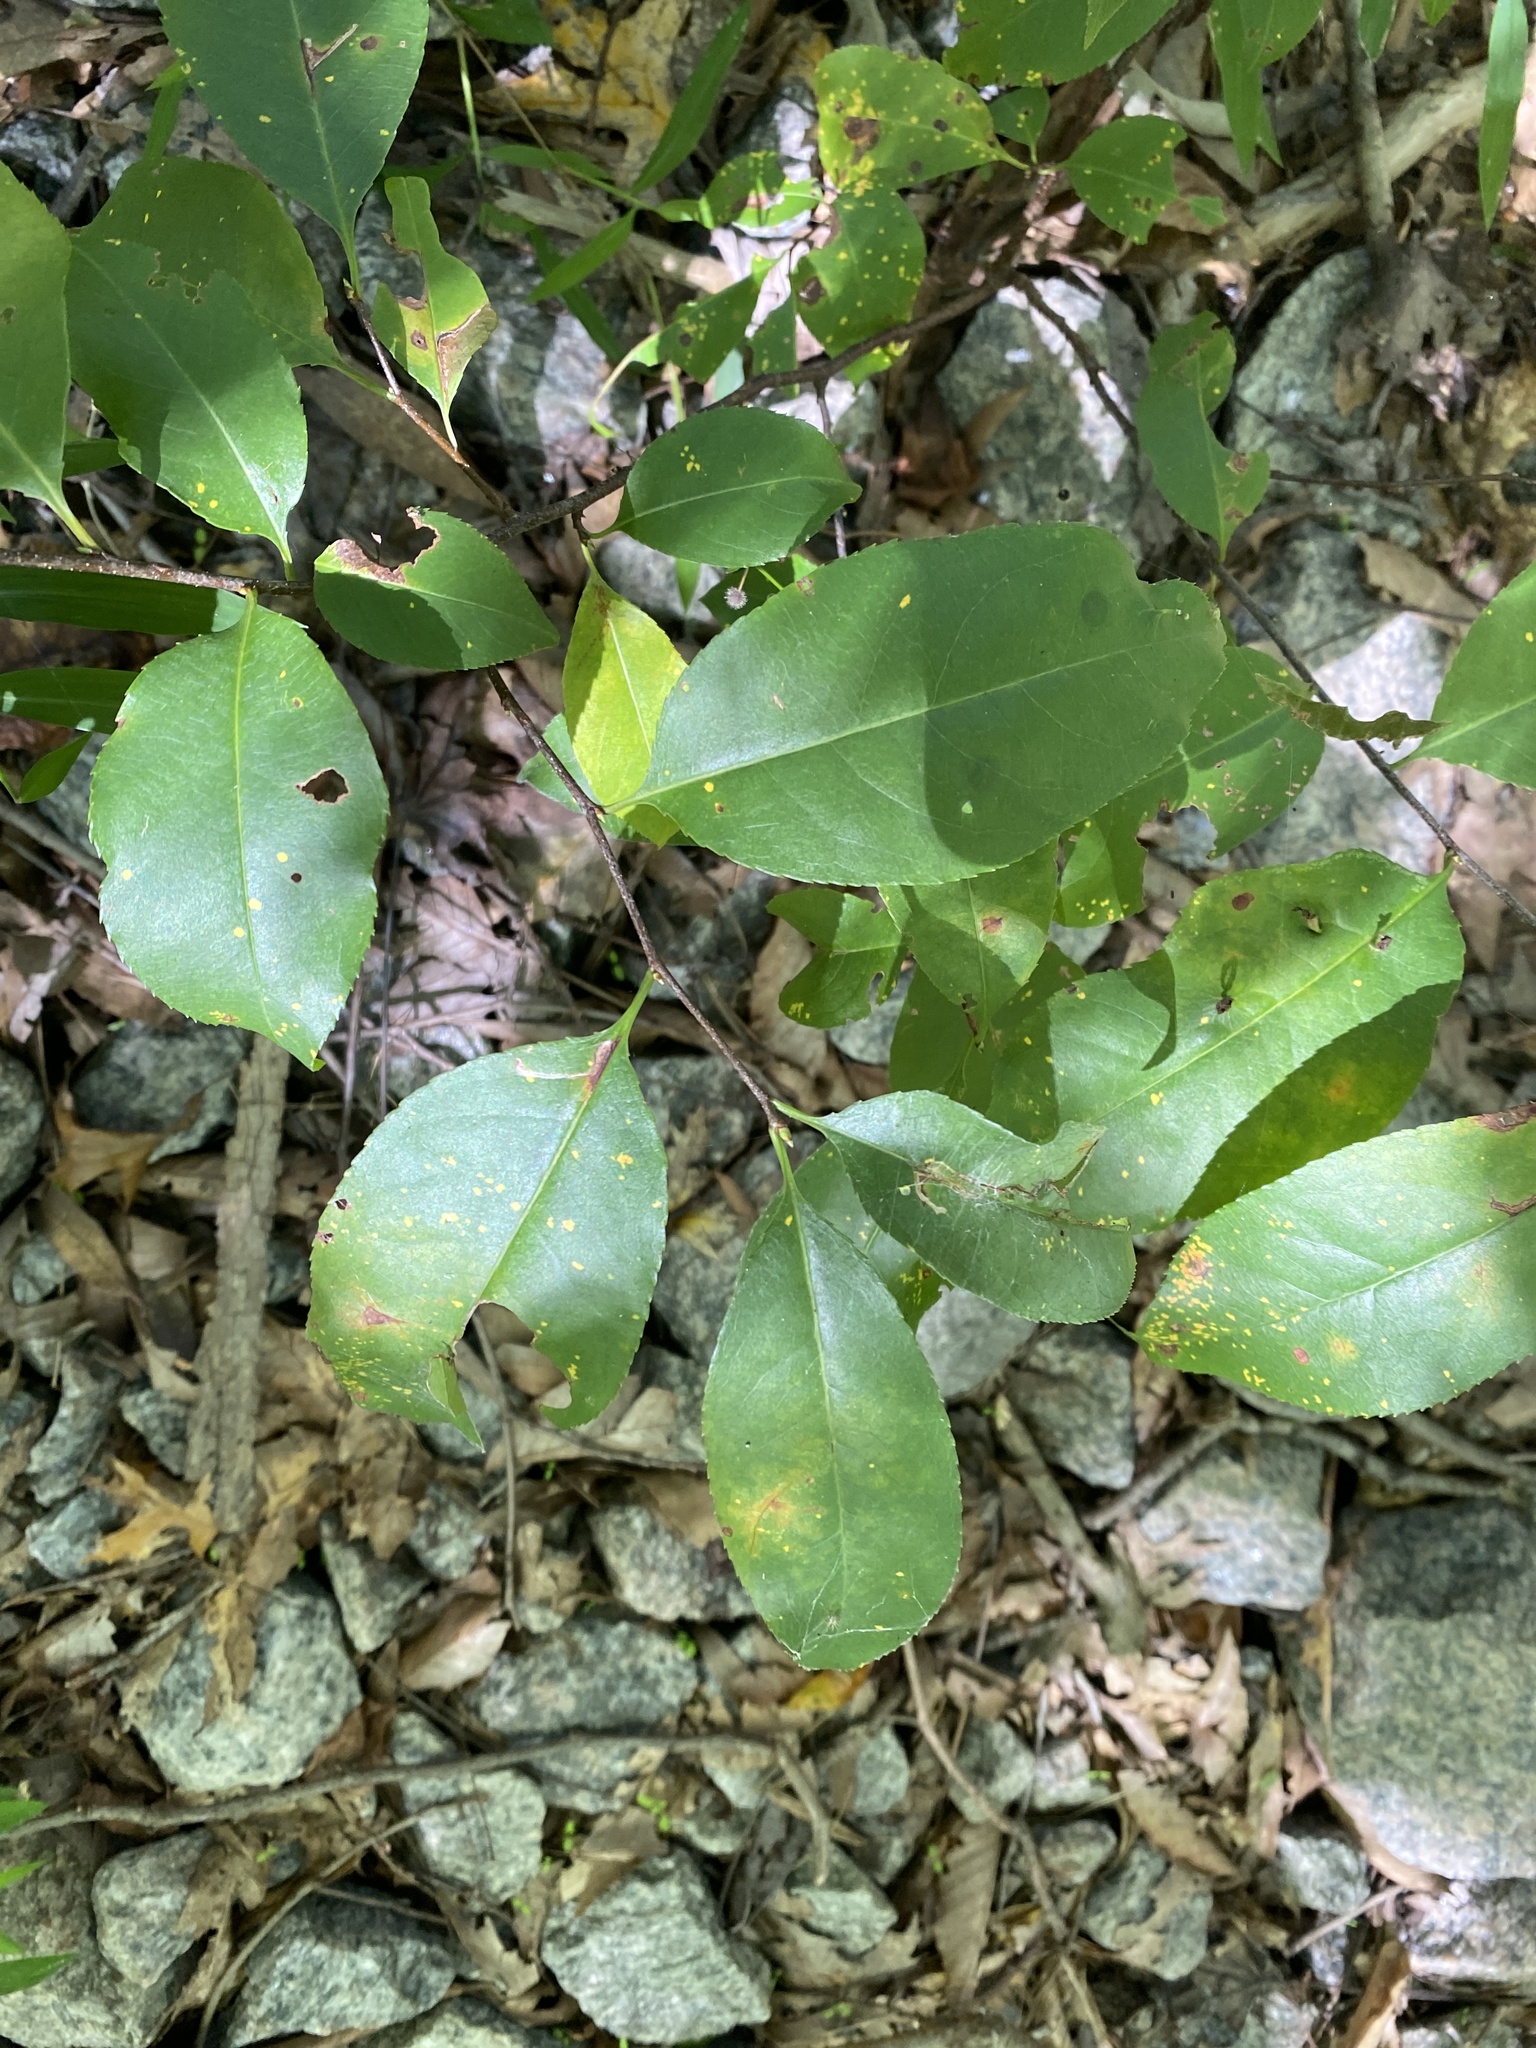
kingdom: Plantae
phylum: Tracheophyta
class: Magnoliopsida
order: Rosales
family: Rosaceae
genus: Prunus
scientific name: Prunus serotina
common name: Black cherry
